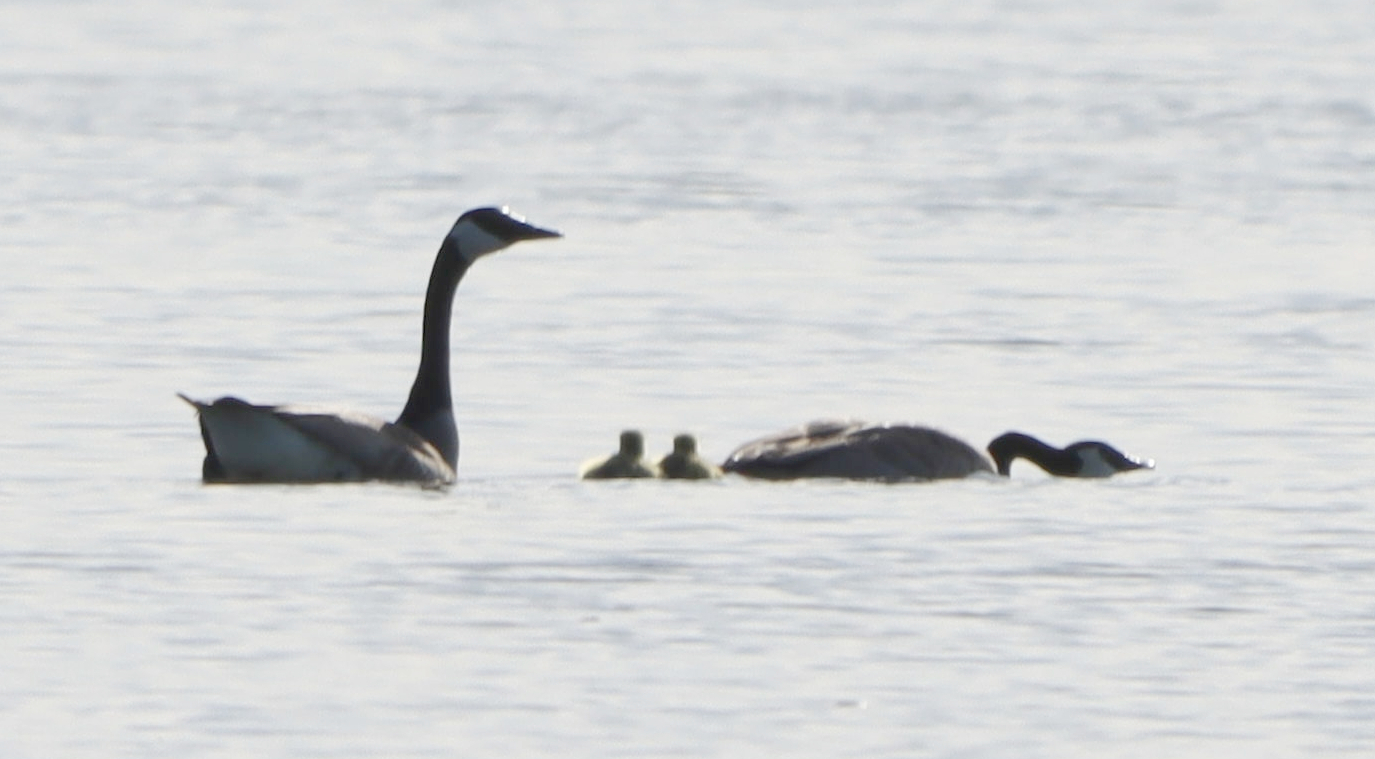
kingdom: Animalia
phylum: Chordata
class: Aves
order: Anseriformes
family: Anatidae
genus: Branta
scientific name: Branta canadensis
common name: Canada goose
